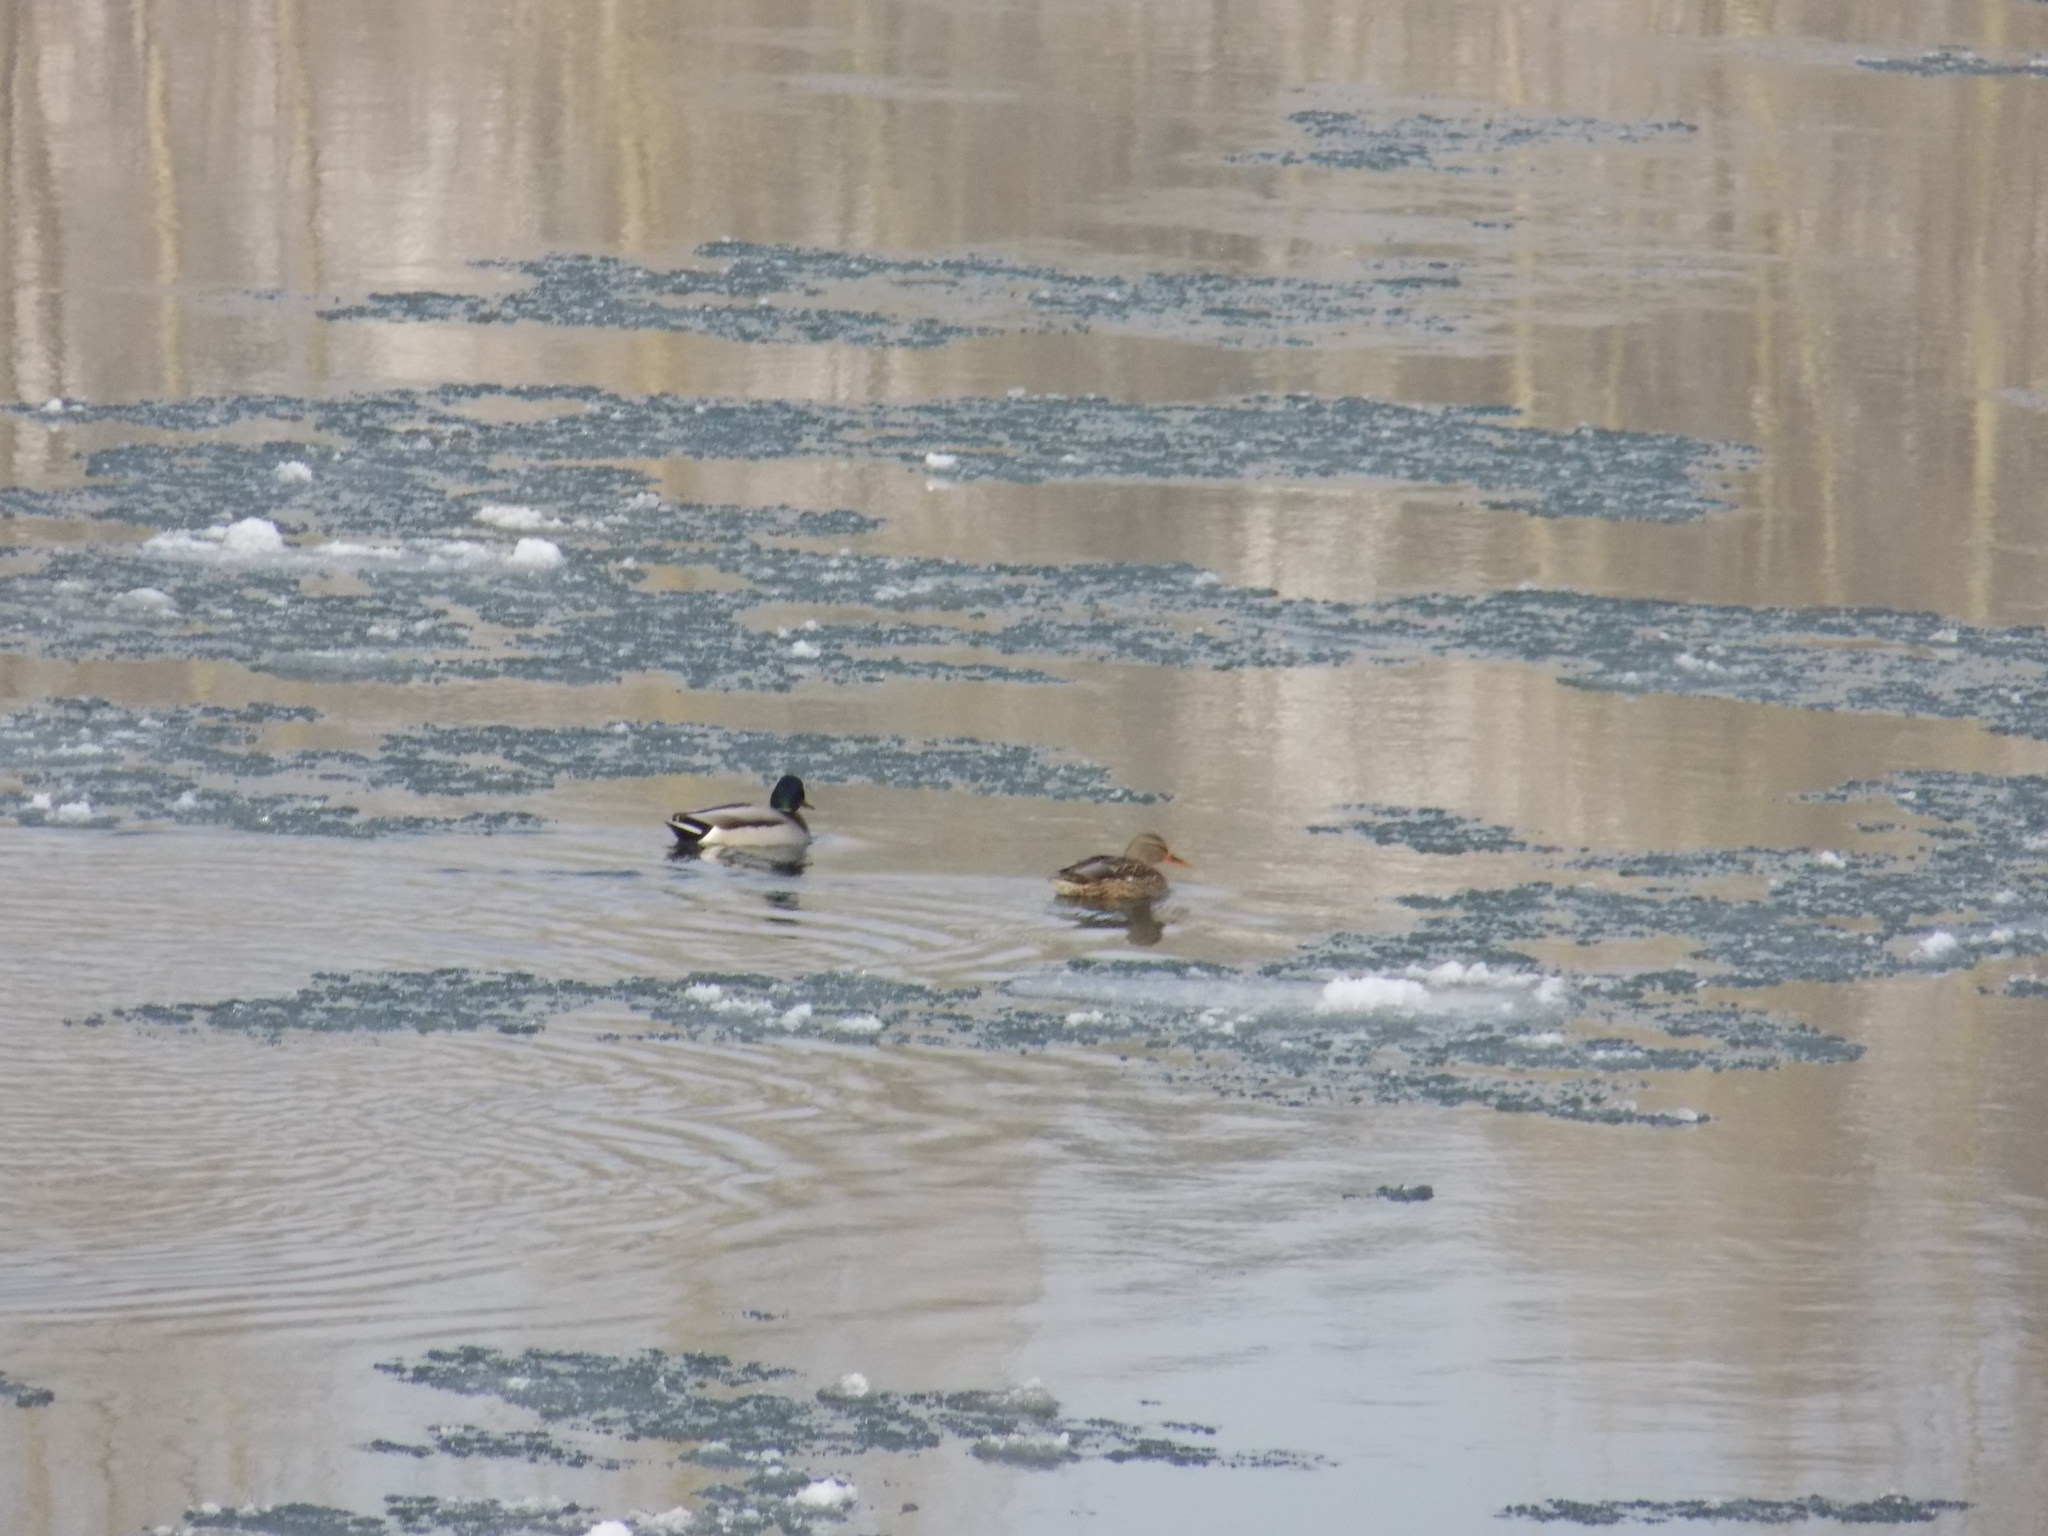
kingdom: Animalia
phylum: Chordata
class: Aves
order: Anseriformes
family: Anatidae
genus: Anas
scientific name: Anas platyrhynchos
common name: Mallard
